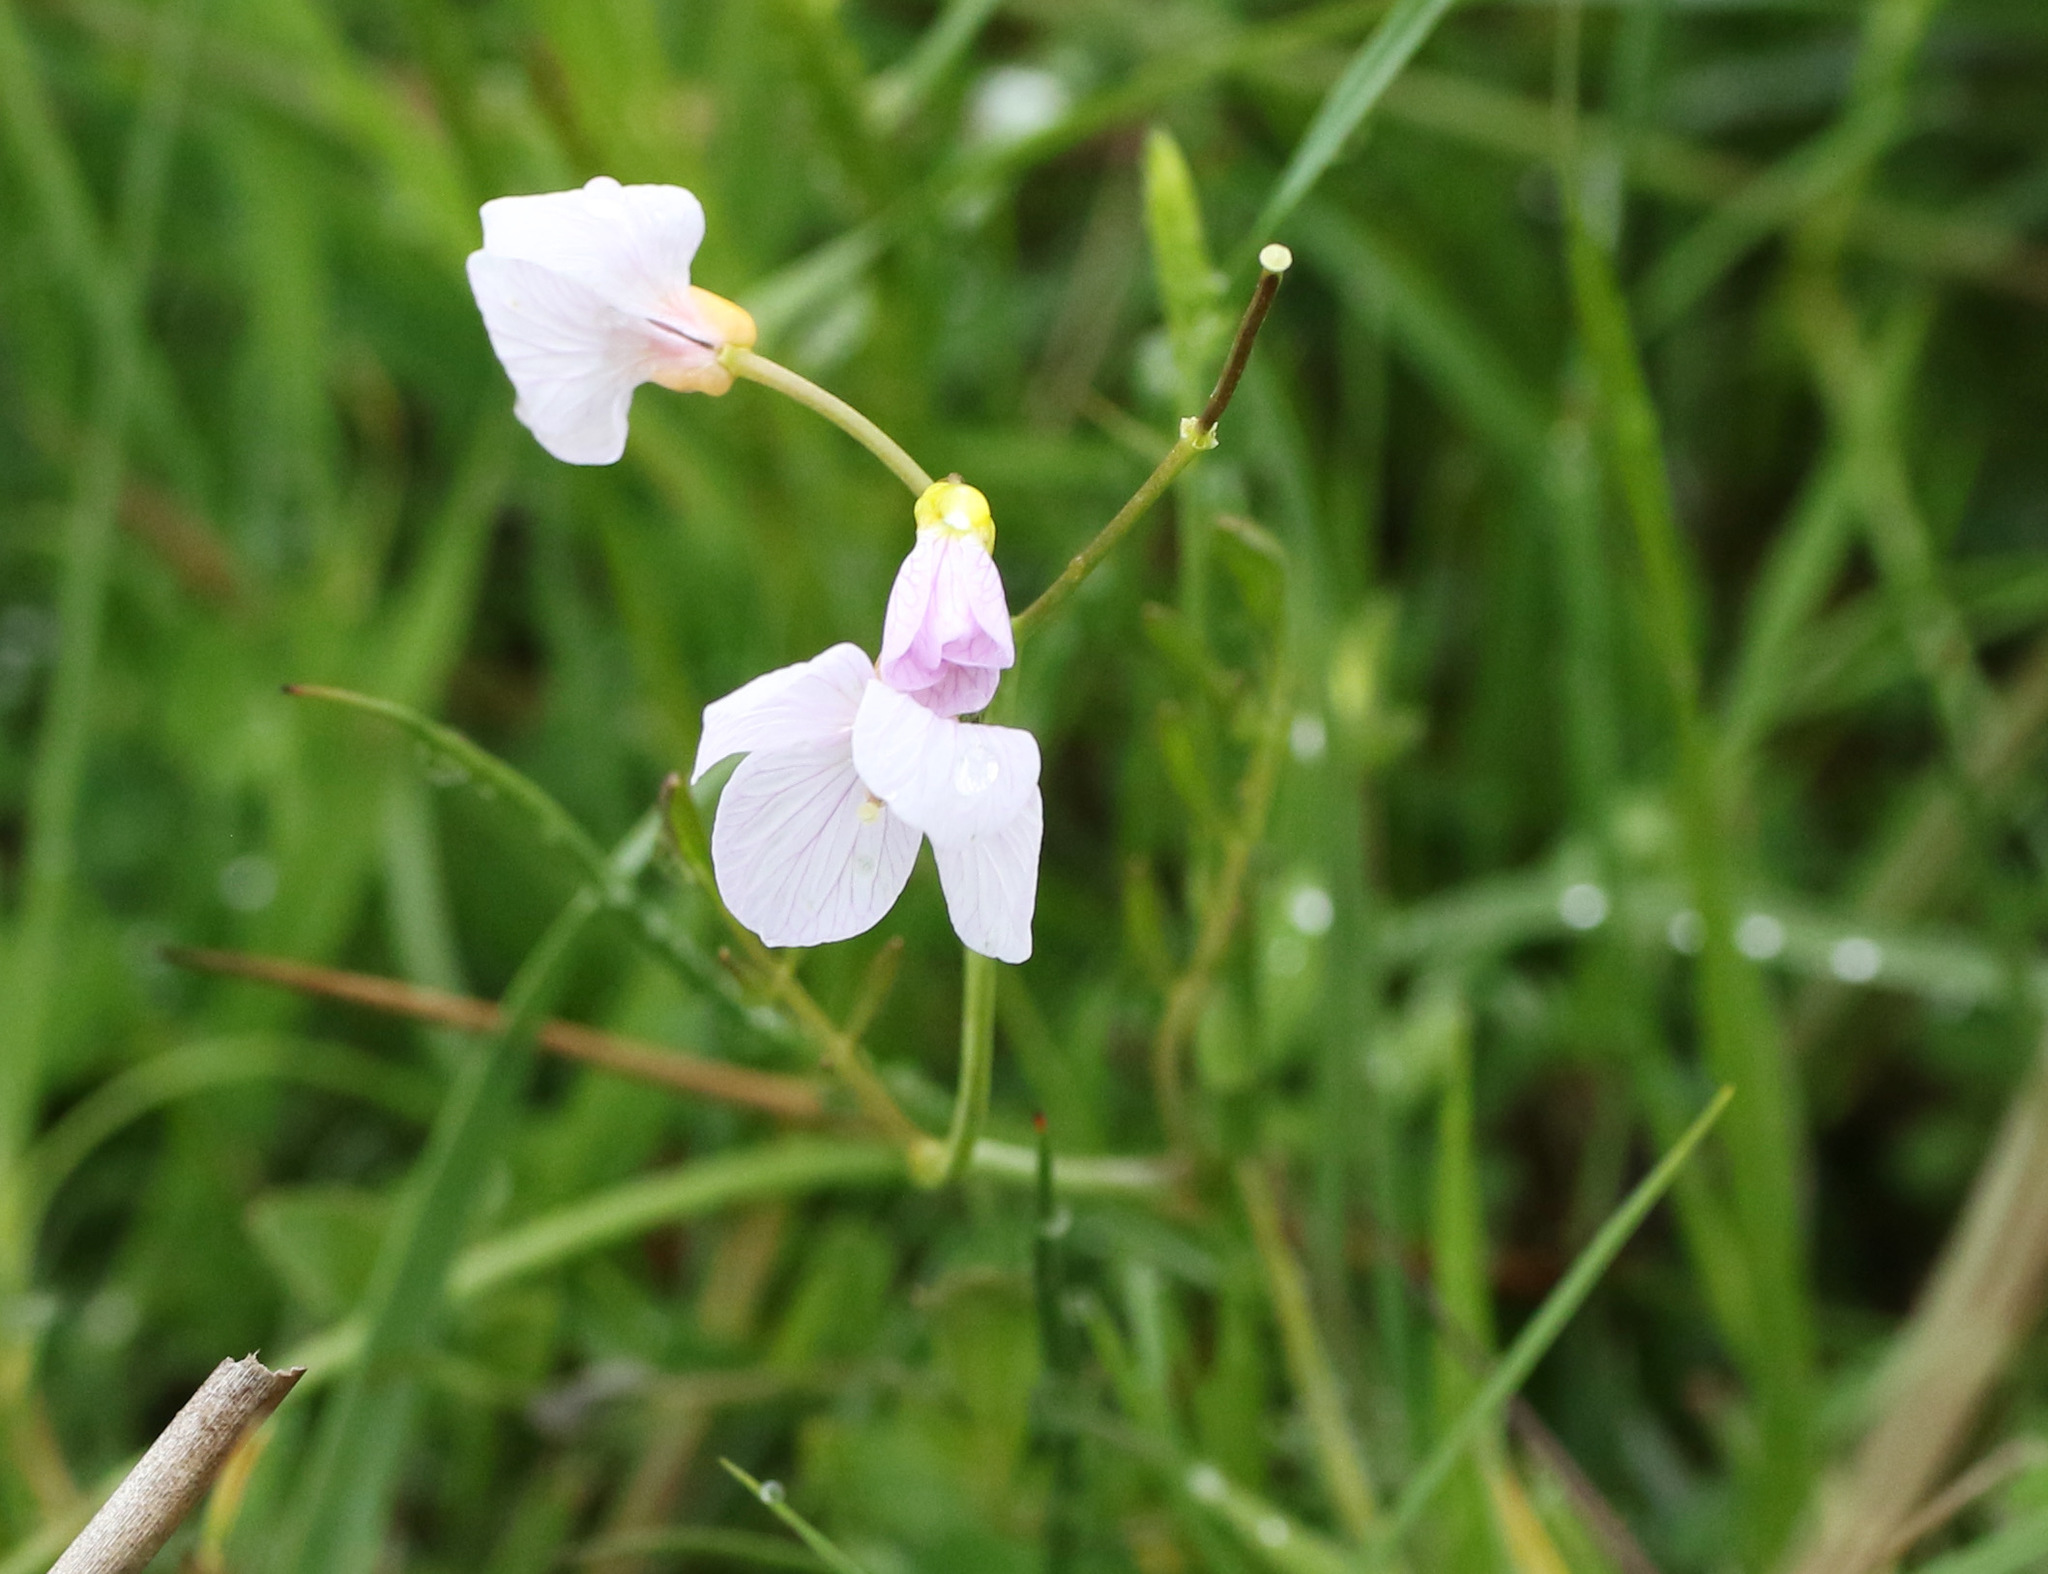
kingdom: Plantae
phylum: Tracheophyta
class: Magnoliopsida
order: Brassicales
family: Brassicaceae
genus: Cardamine
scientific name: Cardamine pratensis
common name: Cuckoo flower
